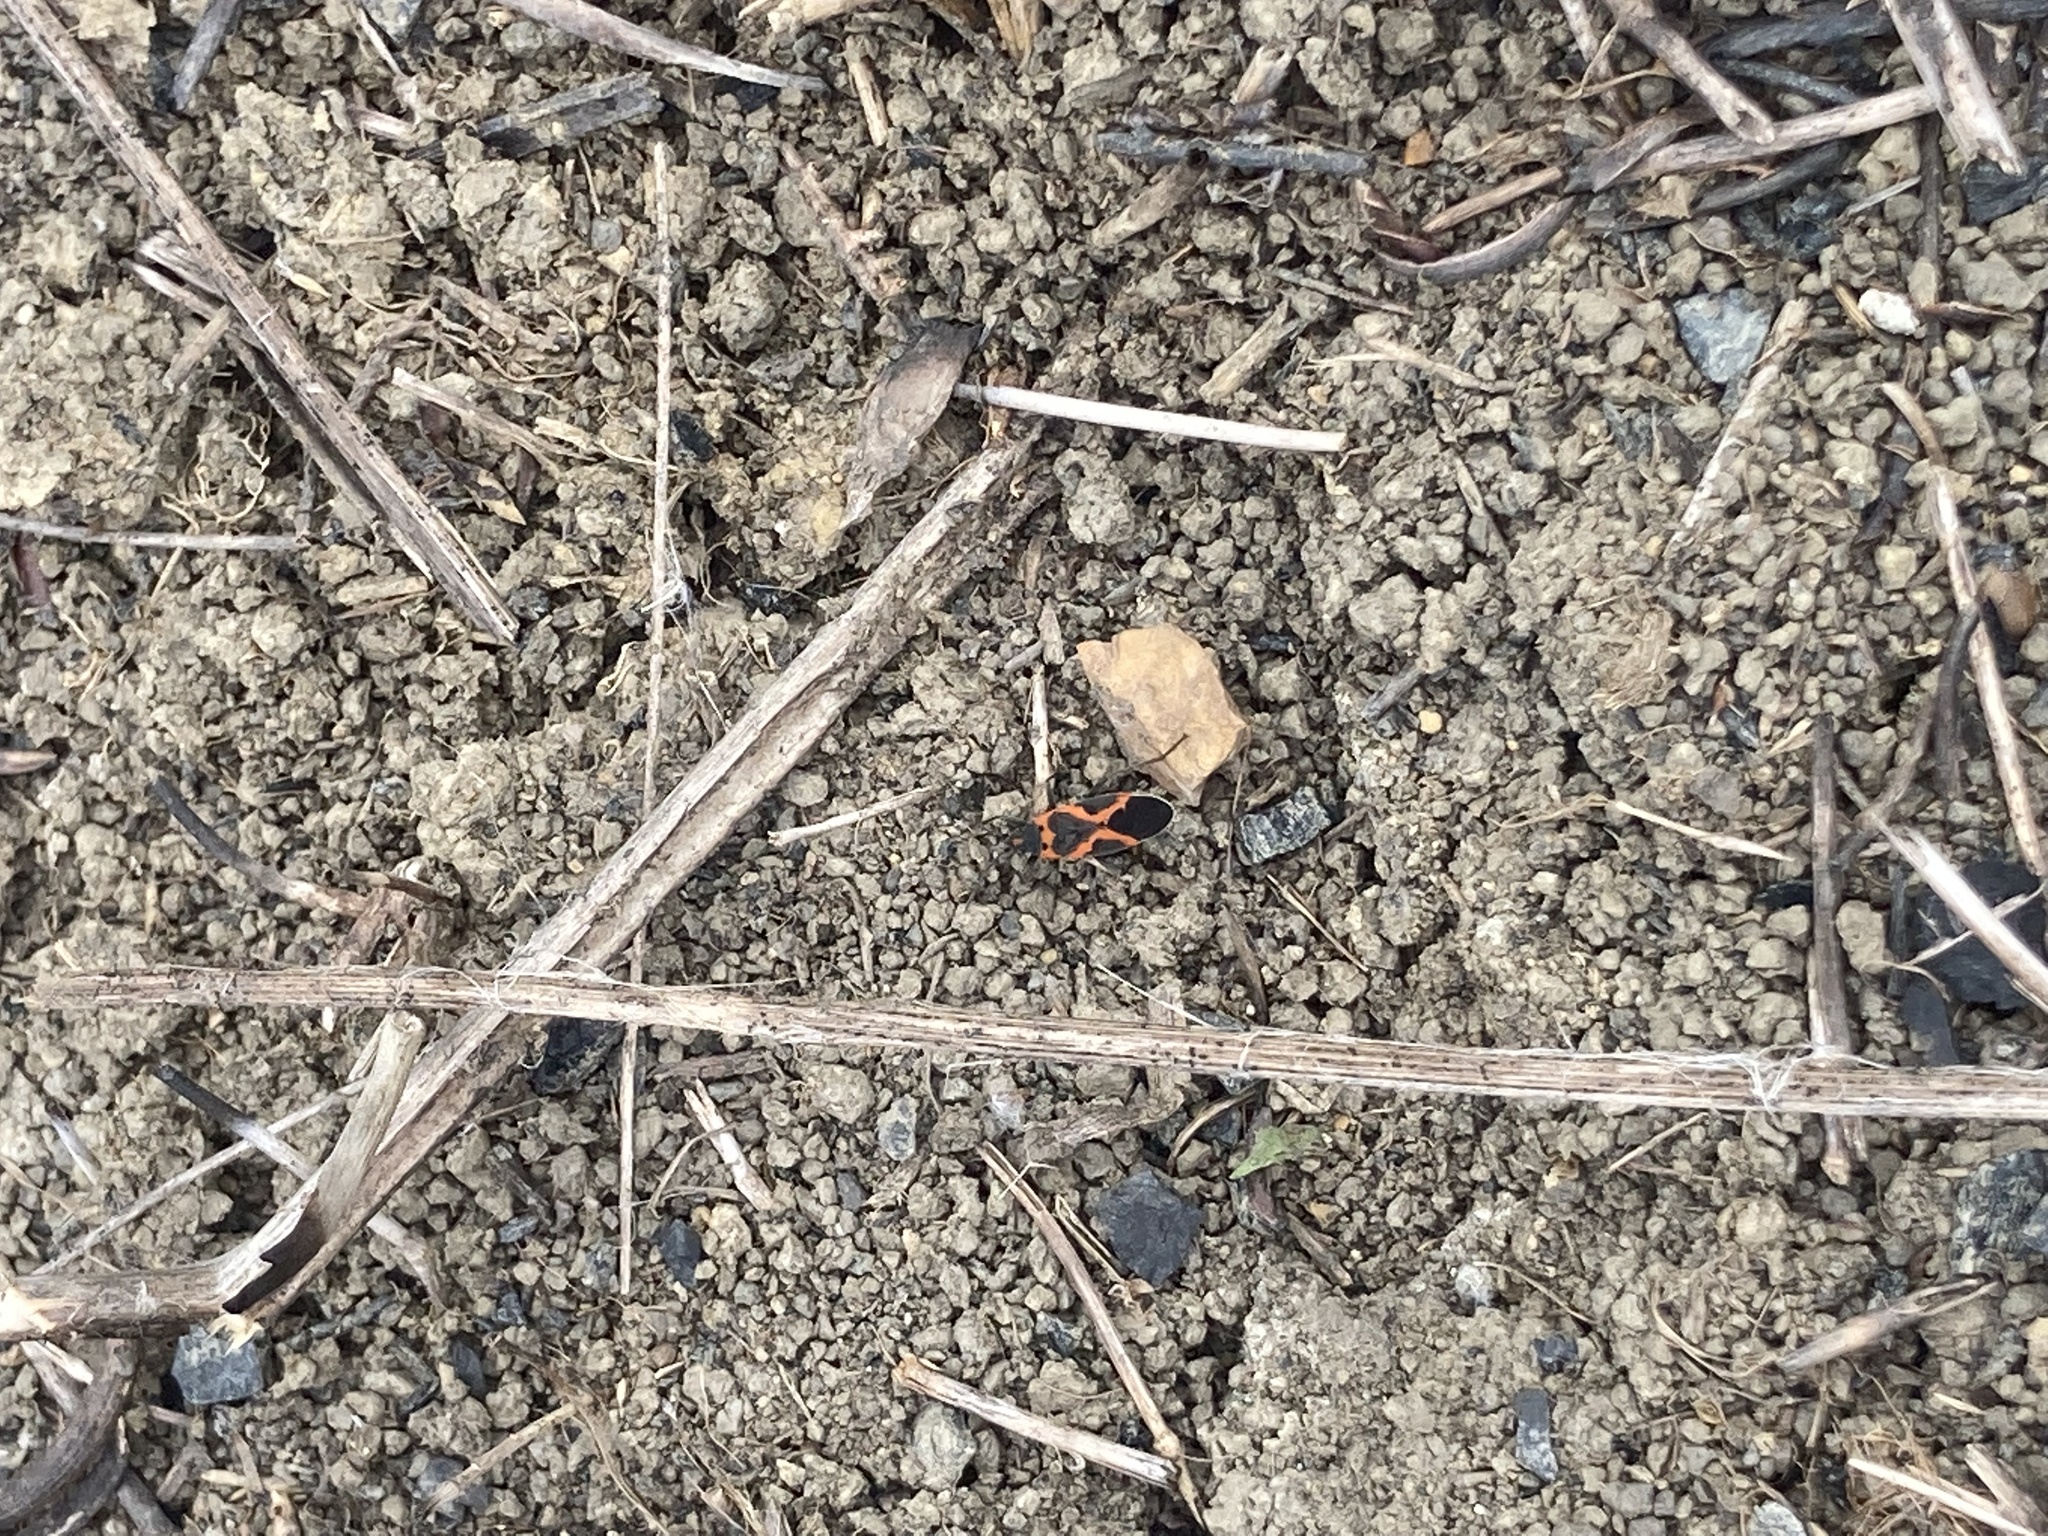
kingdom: Animalia
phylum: Arthropoda
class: Insecta
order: Hemiptera
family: Lygaeidae
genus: Lygaeus
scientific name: Lygaeus kalmii
